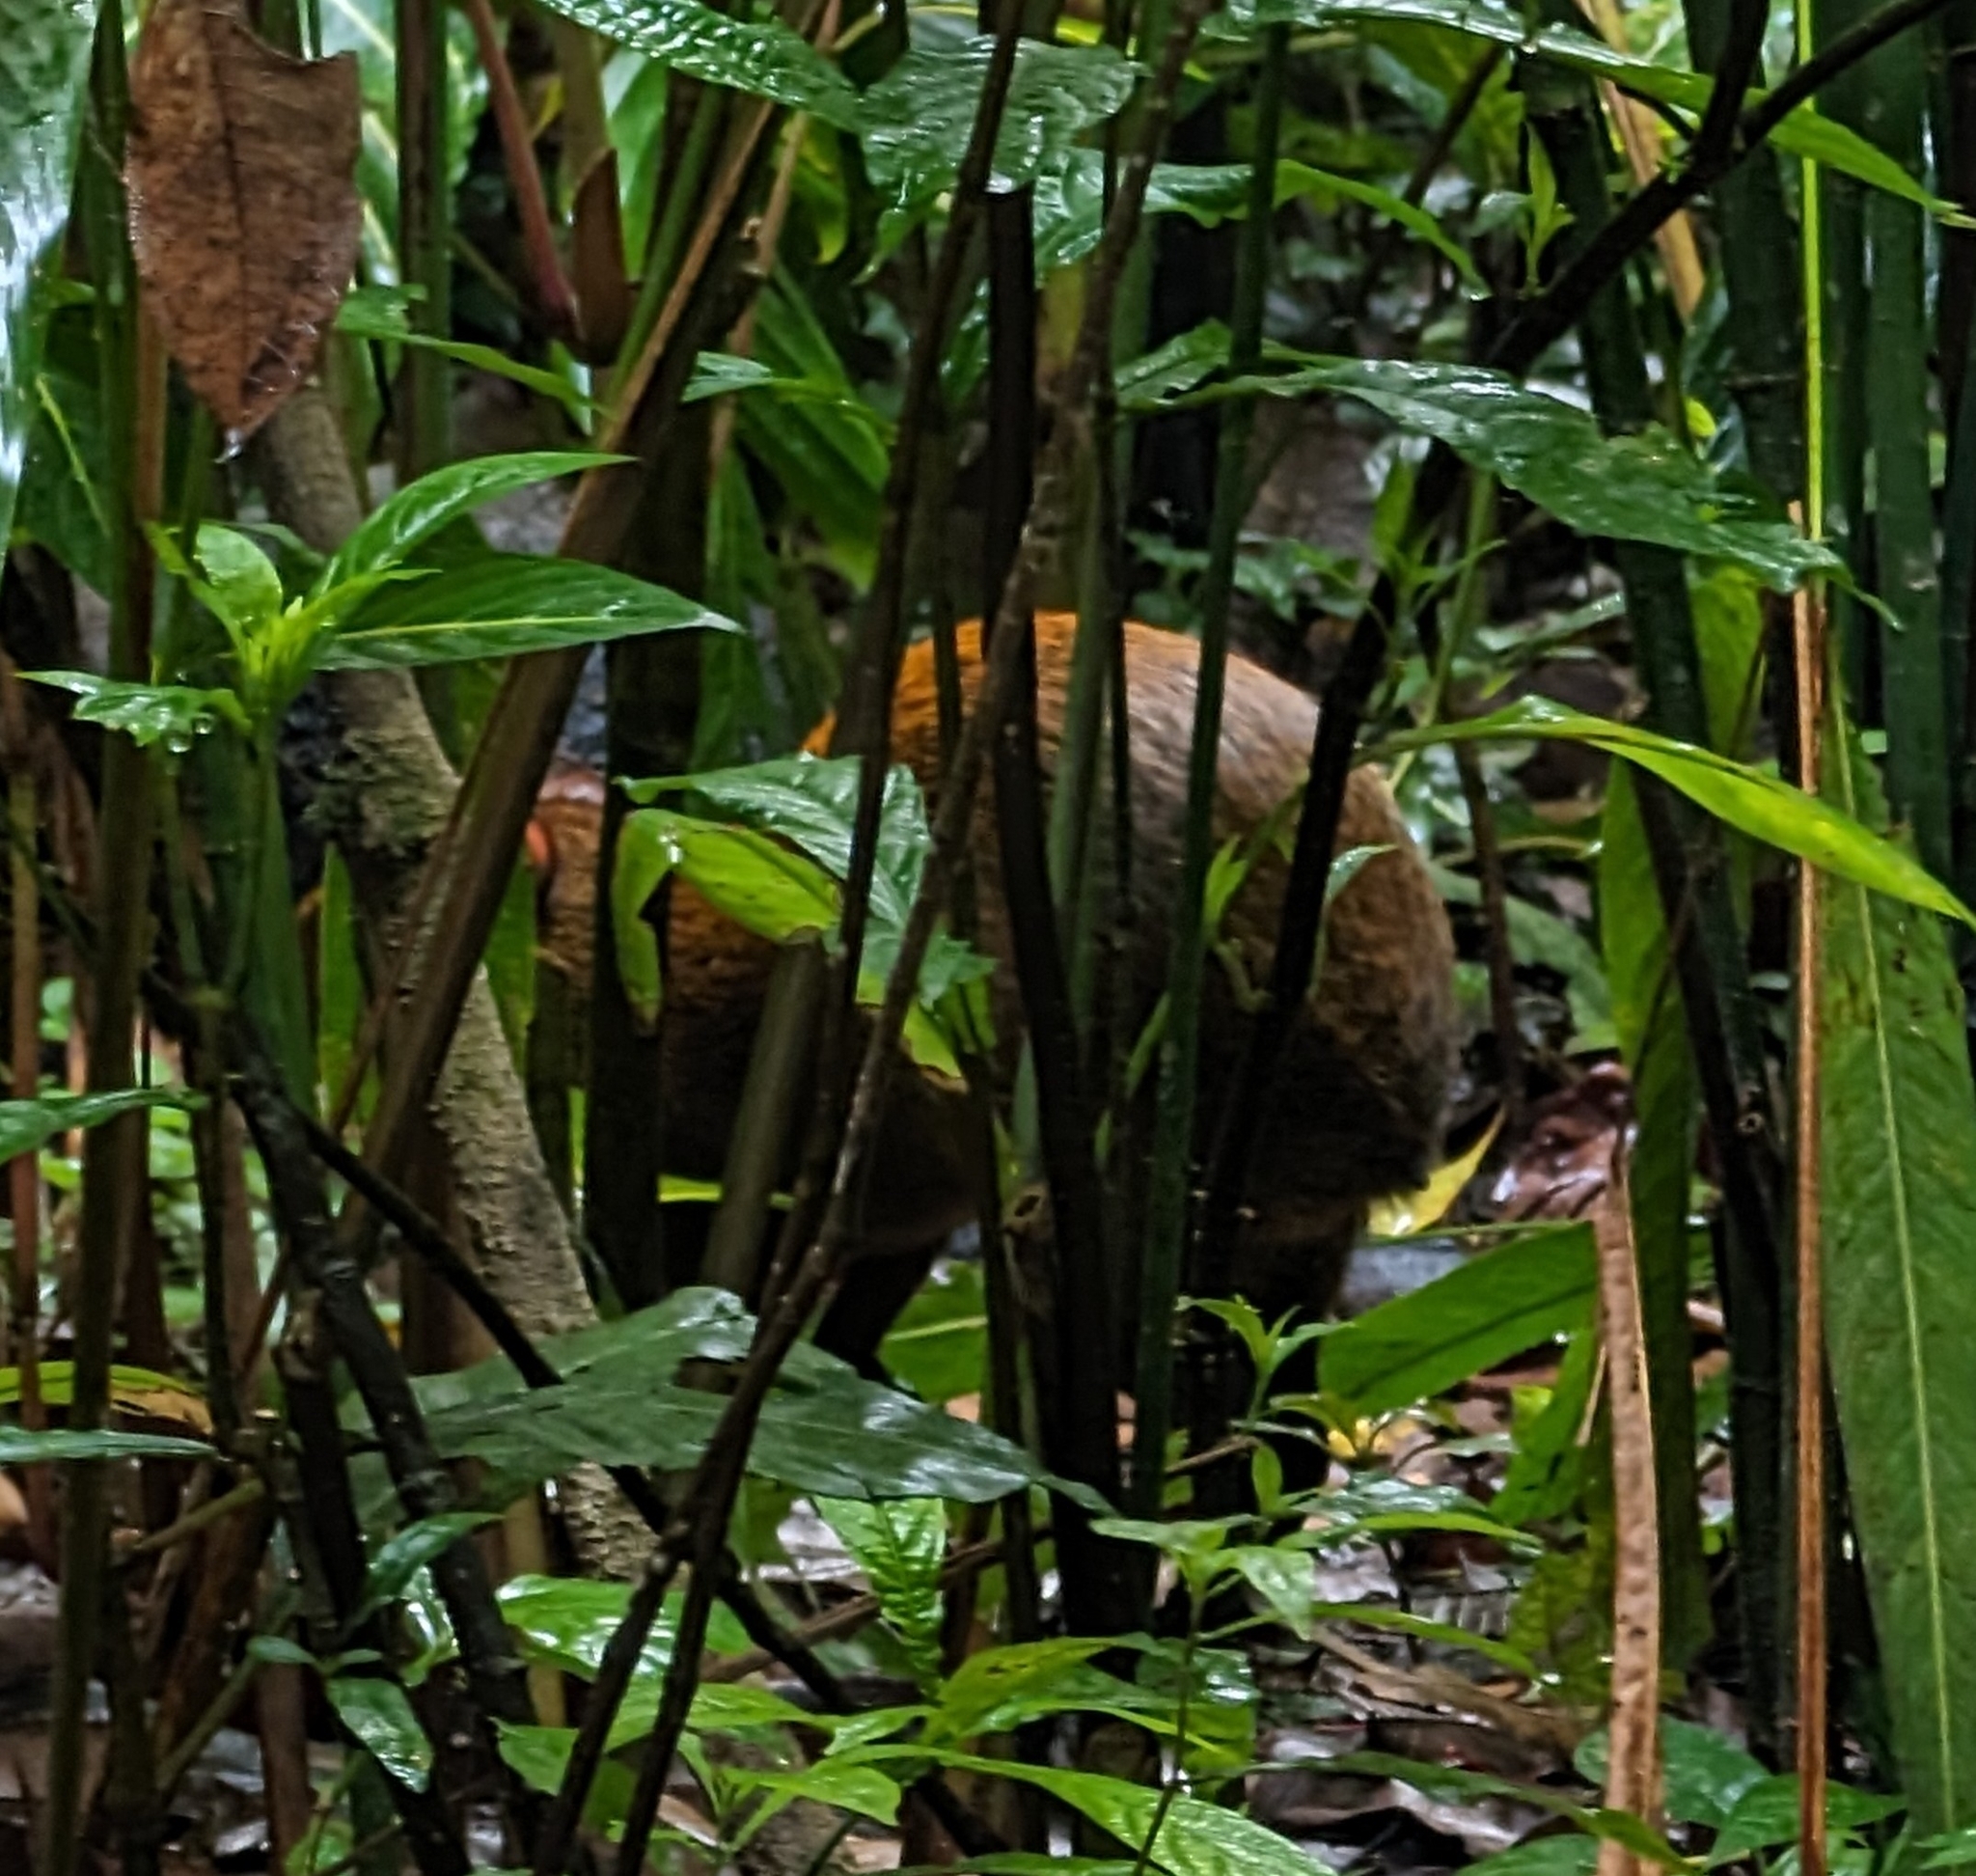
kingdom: Animalia
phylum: Chordata
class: Mammalia
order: Rodentia
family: Dasyproctidae
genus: Dasyprocta
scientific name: Dasyprocta punctata
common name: Central american agouti
